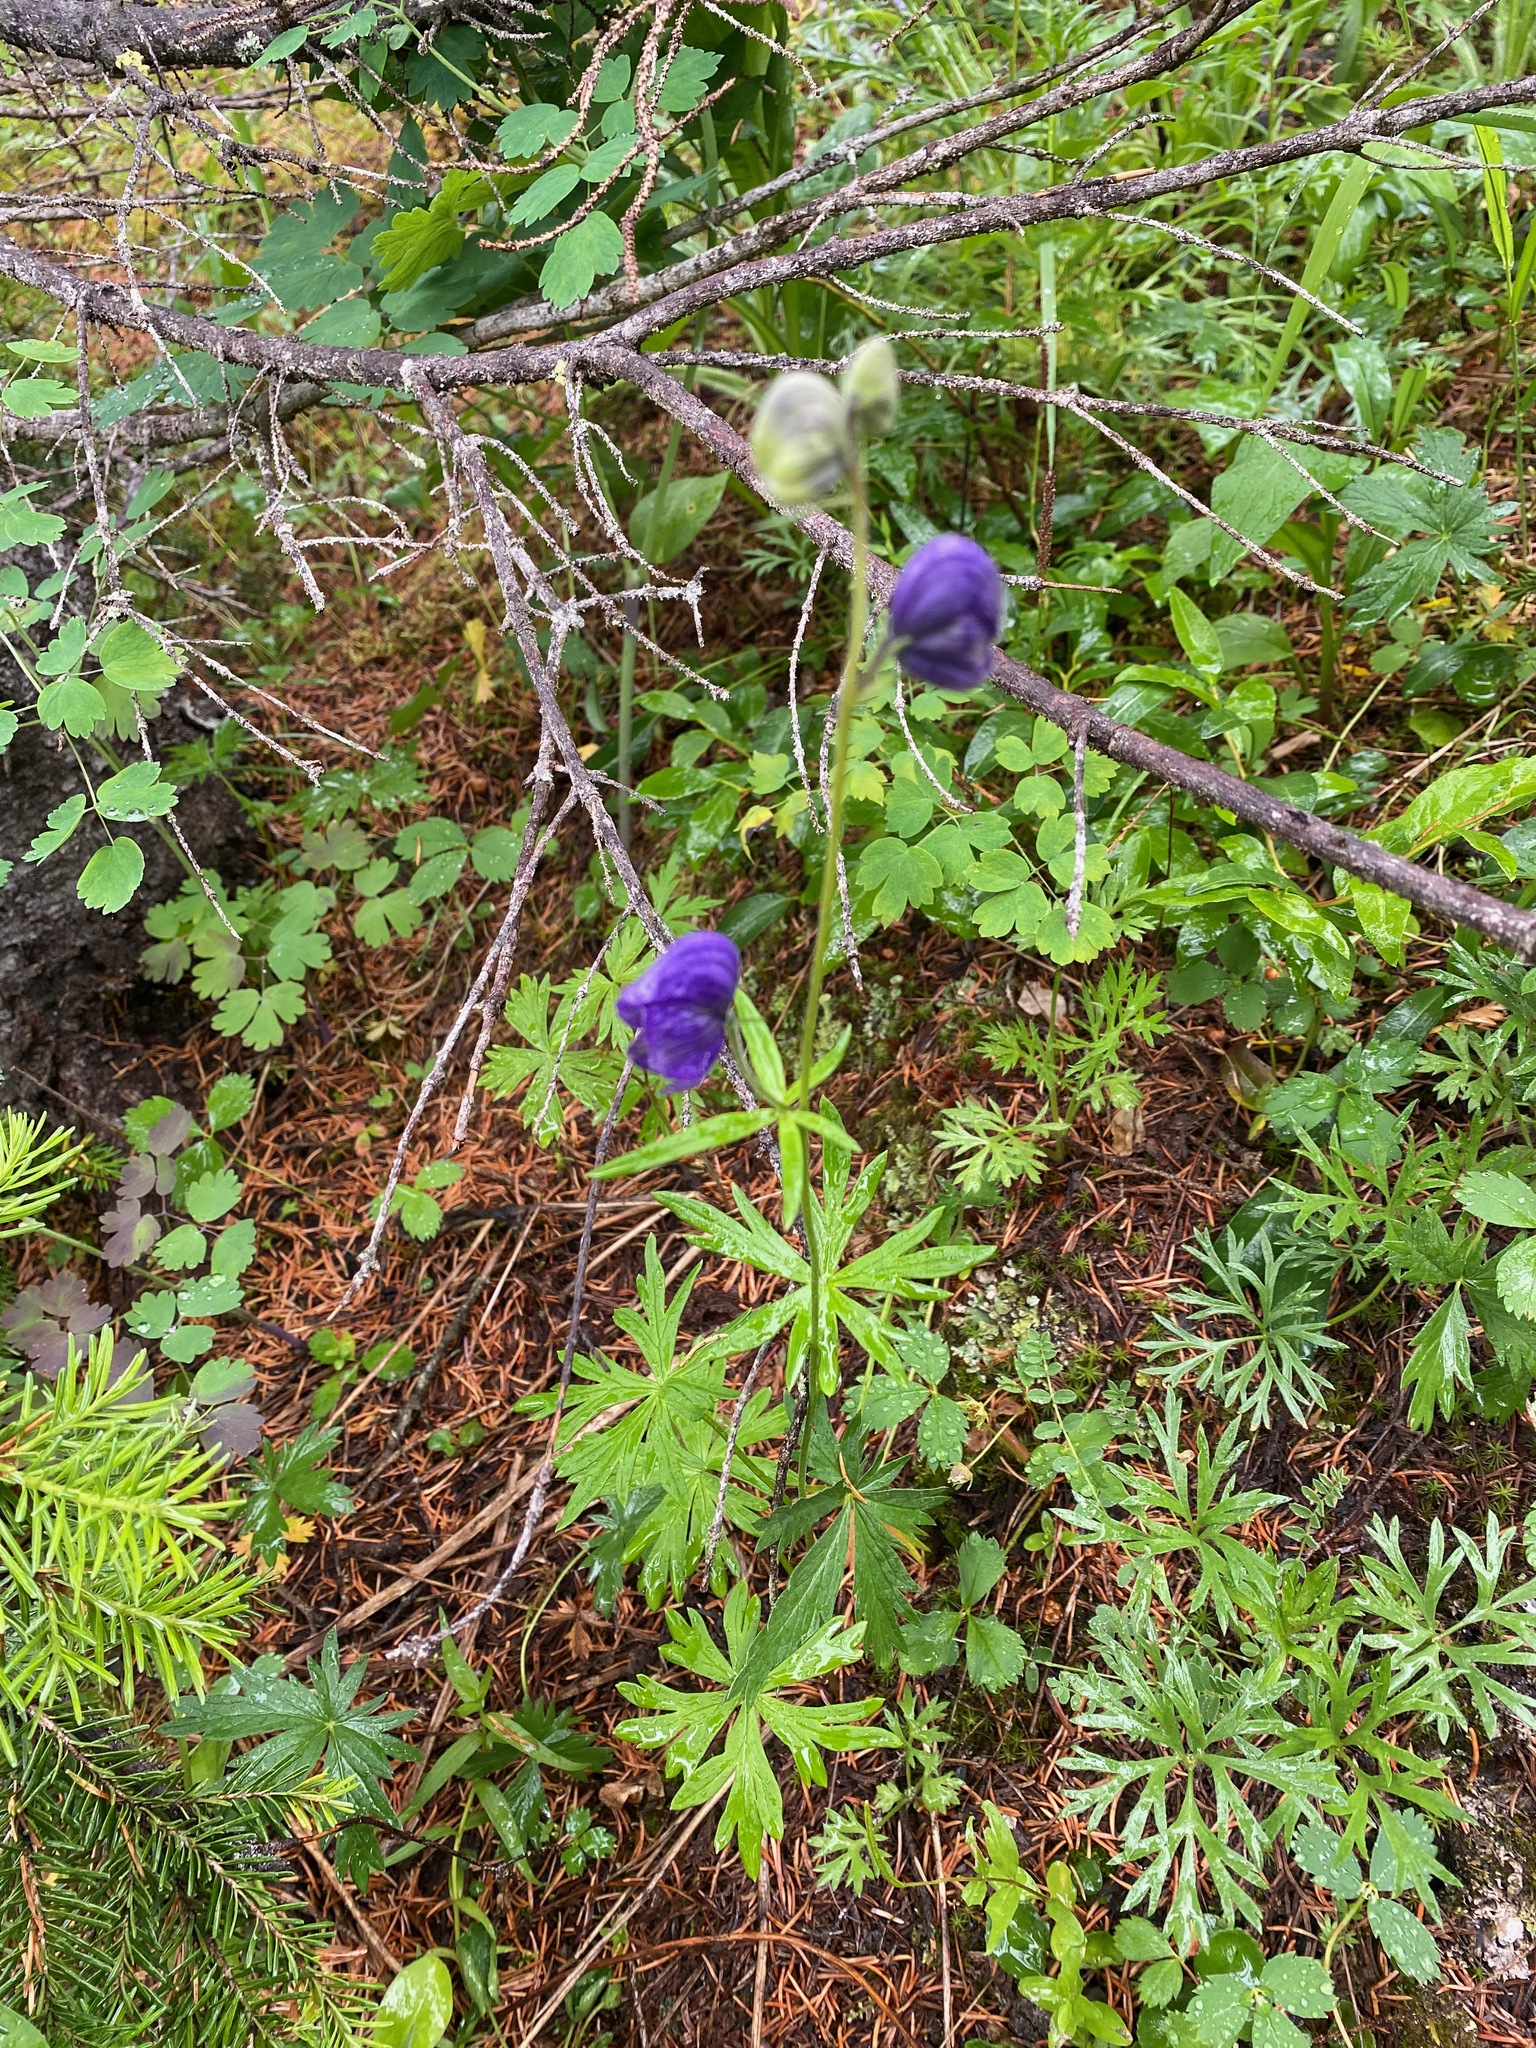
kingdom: Plantae
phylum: Tracheophyta
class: Magnoliopsida
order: Ranunculales
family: Ranunculaceae
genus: Aconitum
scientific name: Aconitum delphiniifolium
